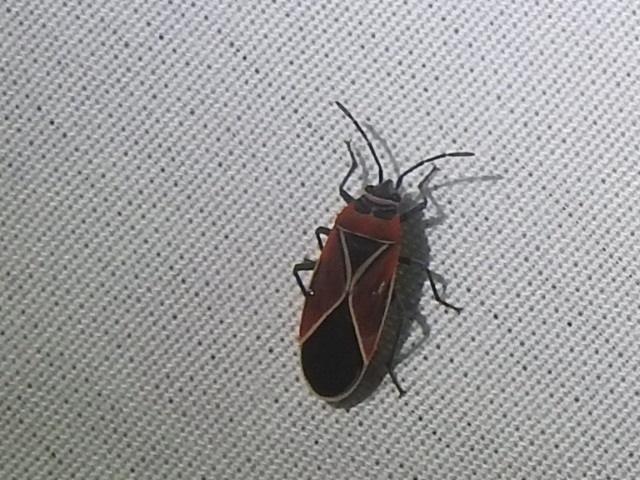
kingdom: Animalia
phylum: Arthropoda
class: Insecta
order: Hemiptera
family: Lygaeidae
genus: Neacoryphus
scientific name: Neacoryphus bicrucis
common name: Lygaeid bug
